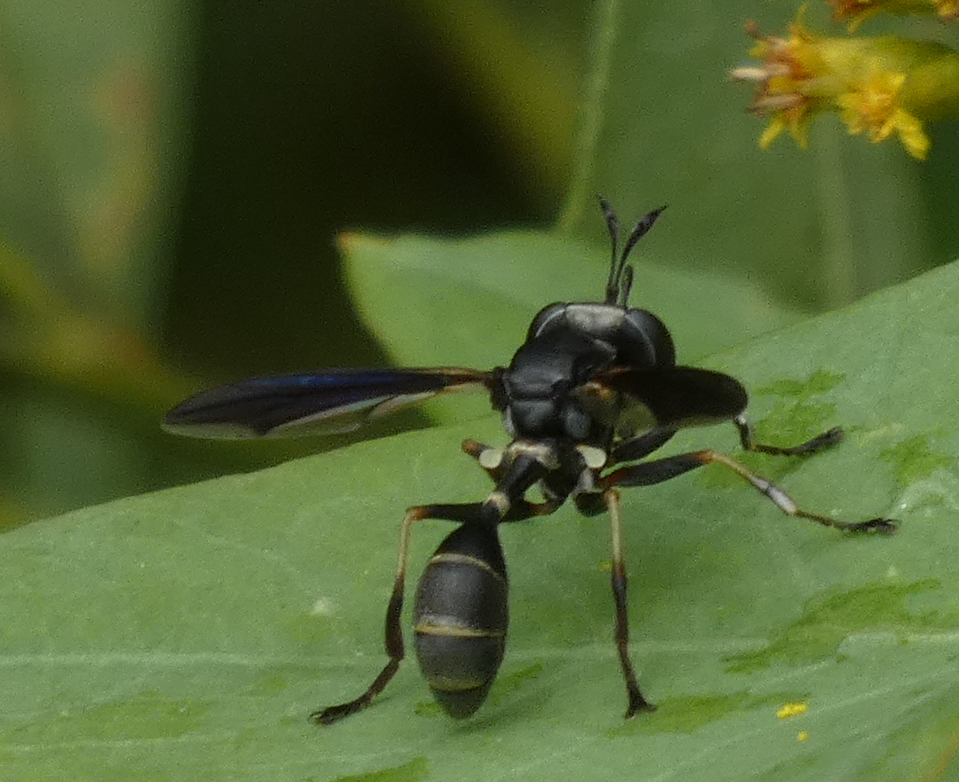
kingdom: Animalia
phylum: Arthropoda
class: Insecta
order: Diptera
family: Conopidae
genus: Physocephala
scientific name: Physocephala tibialis
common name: Common eastern physocephala
